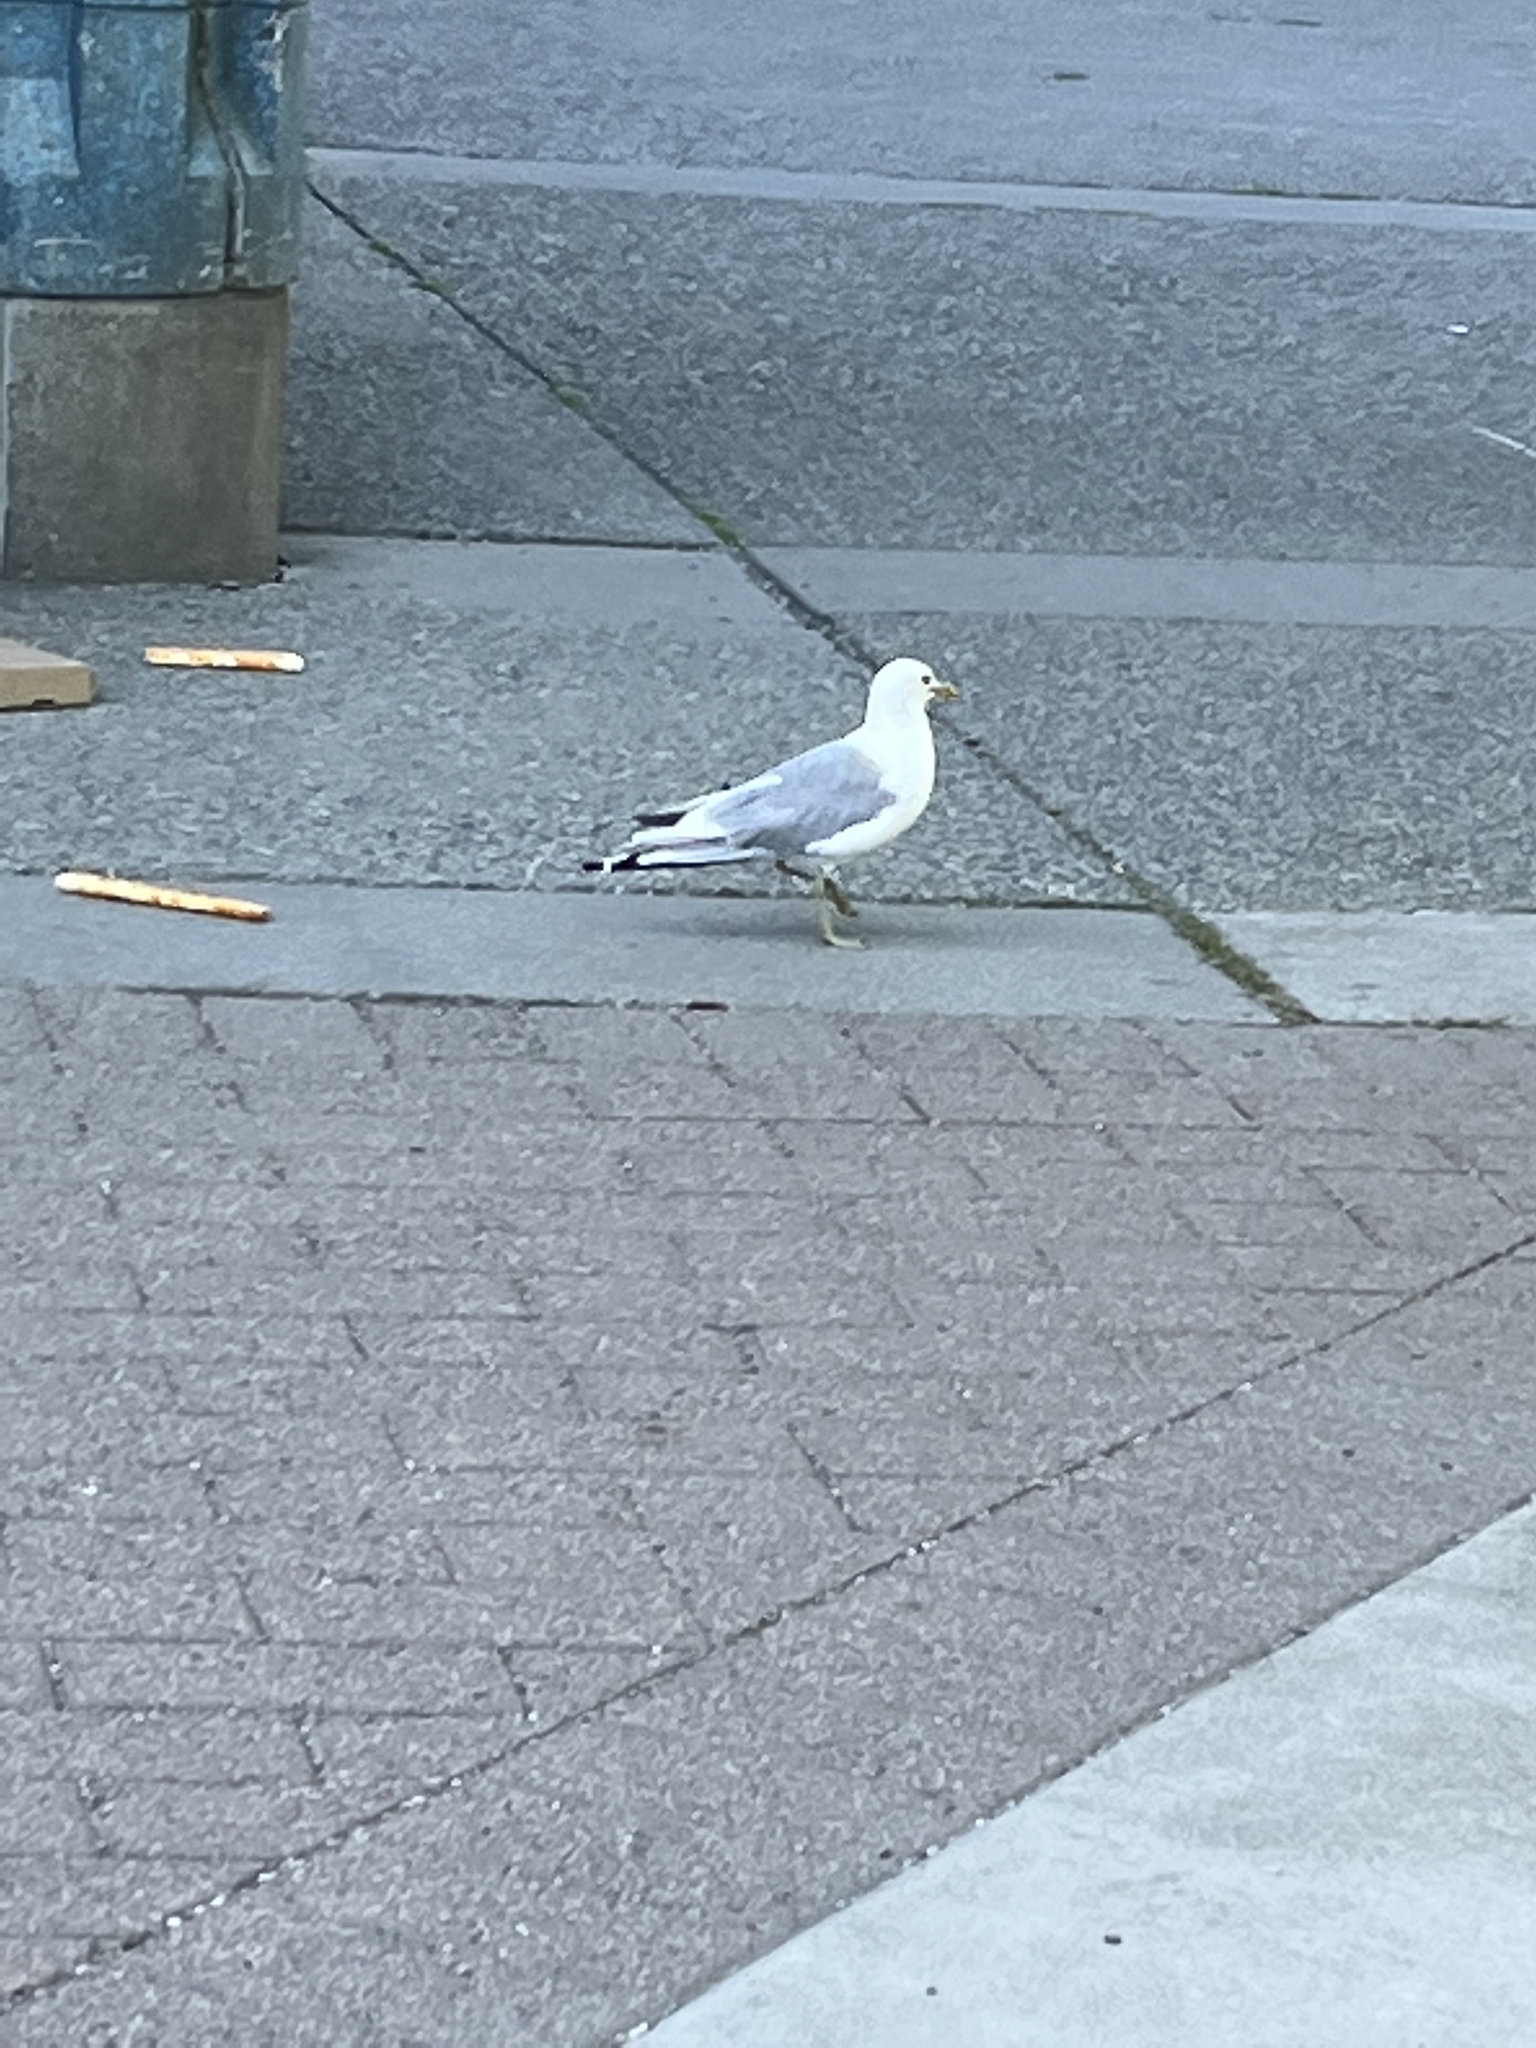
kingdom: Animalia
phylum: Chordata
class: Aves
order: Charadriiformes
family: Laridae
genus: Larus
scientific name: Larus brachyrhynchus
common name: Short-billed gull
